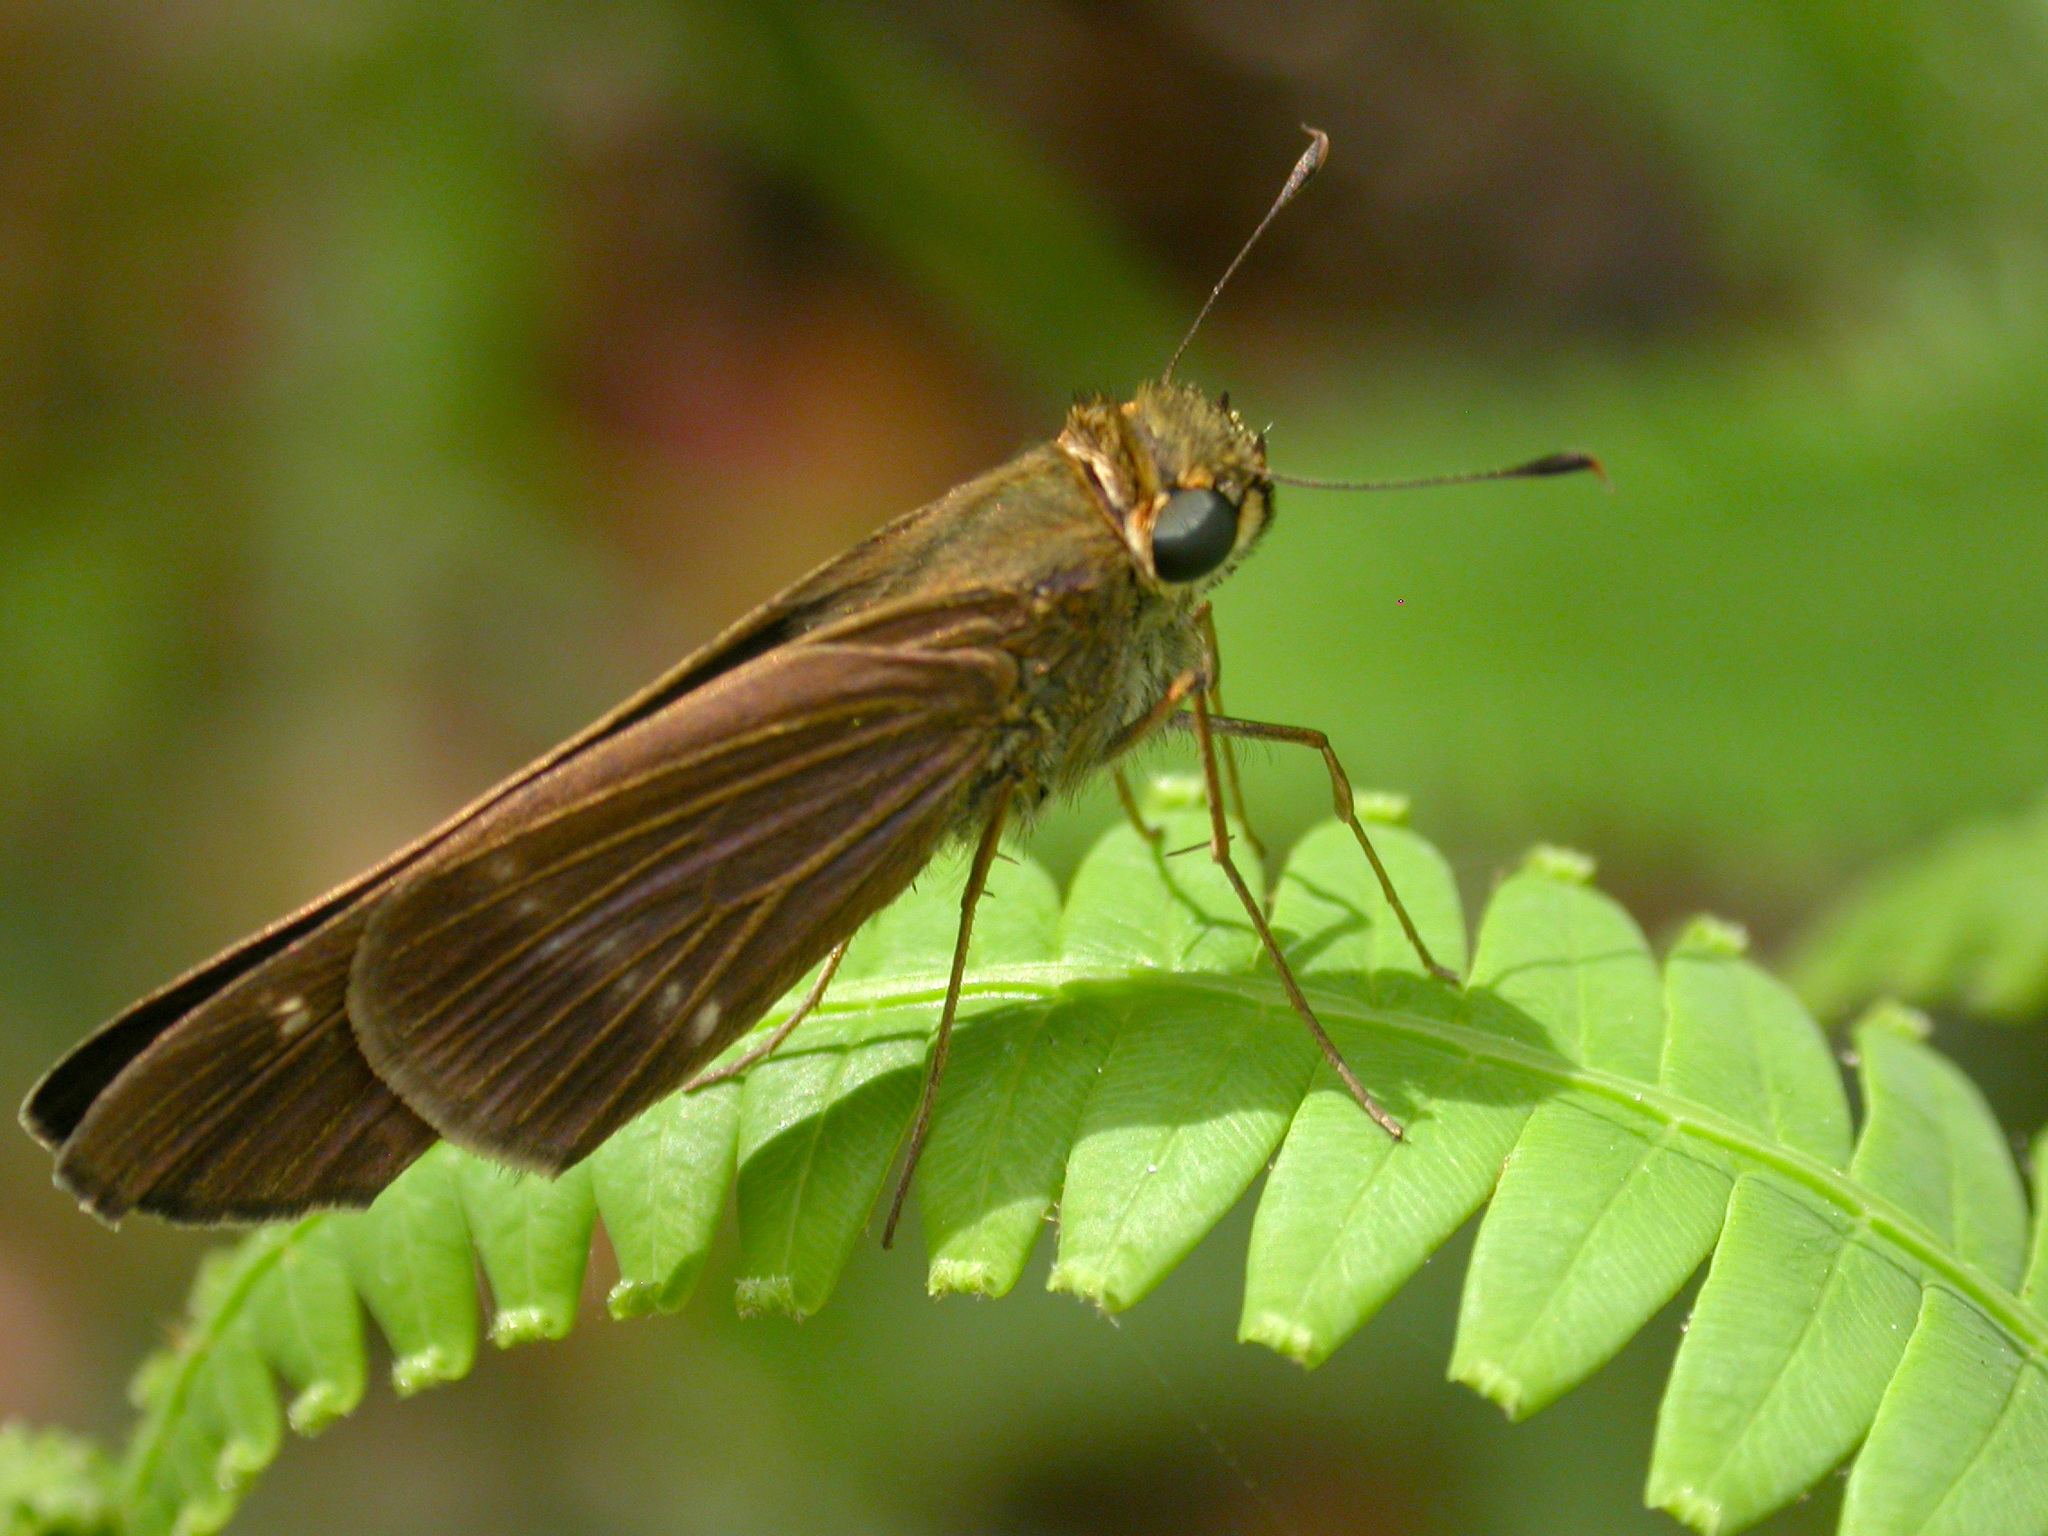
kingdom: Animalia
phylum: Arthropoda
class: Insecta
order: Lepidoptera
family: Hesperiidae
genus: Turesis
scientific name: Turesis lucas
